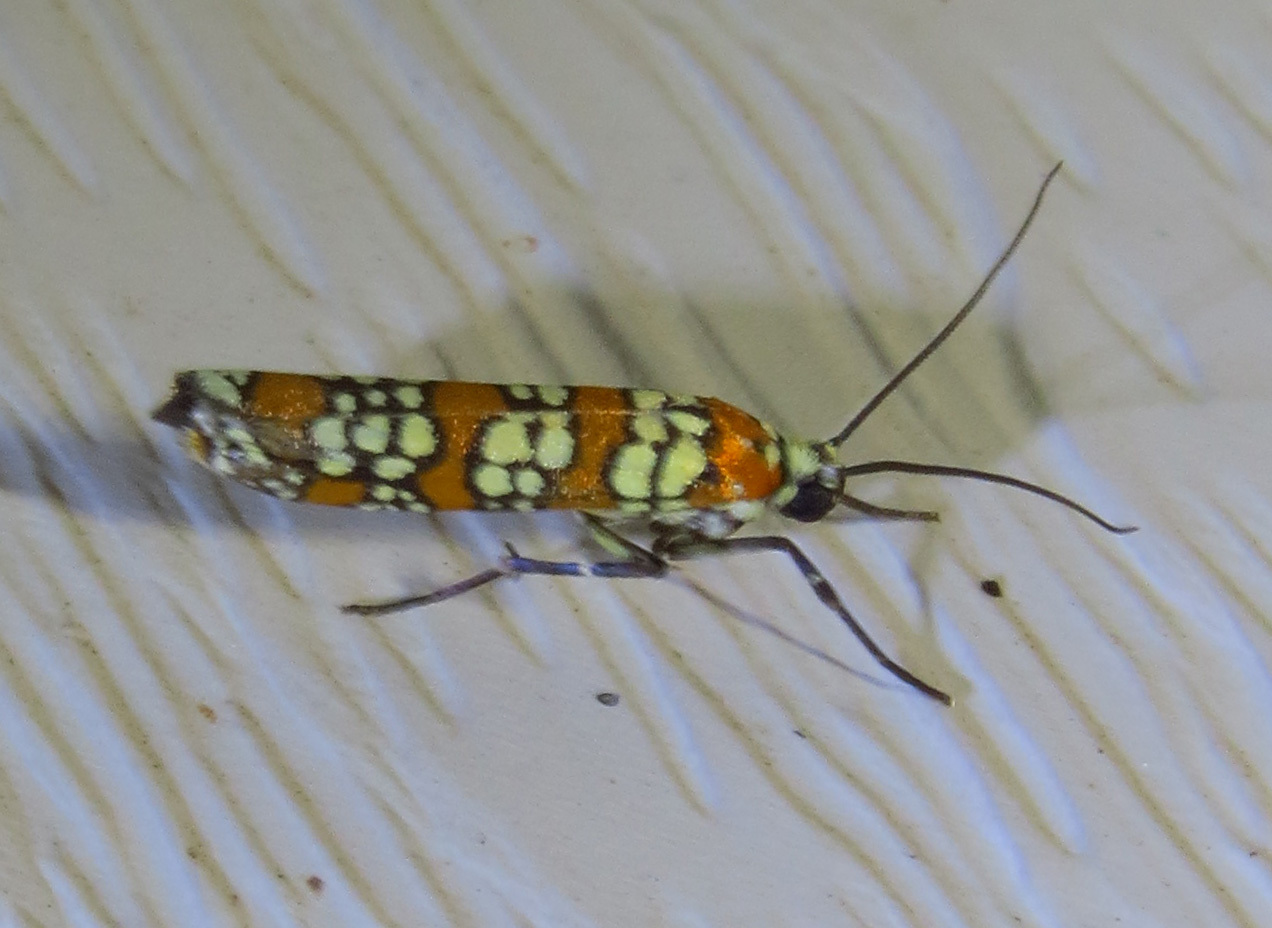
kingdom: Animalia
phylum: Arthropoda
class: Insecta
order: Lepidoptera
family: Attevidae
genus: Atteva
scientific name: Atteva punctella
